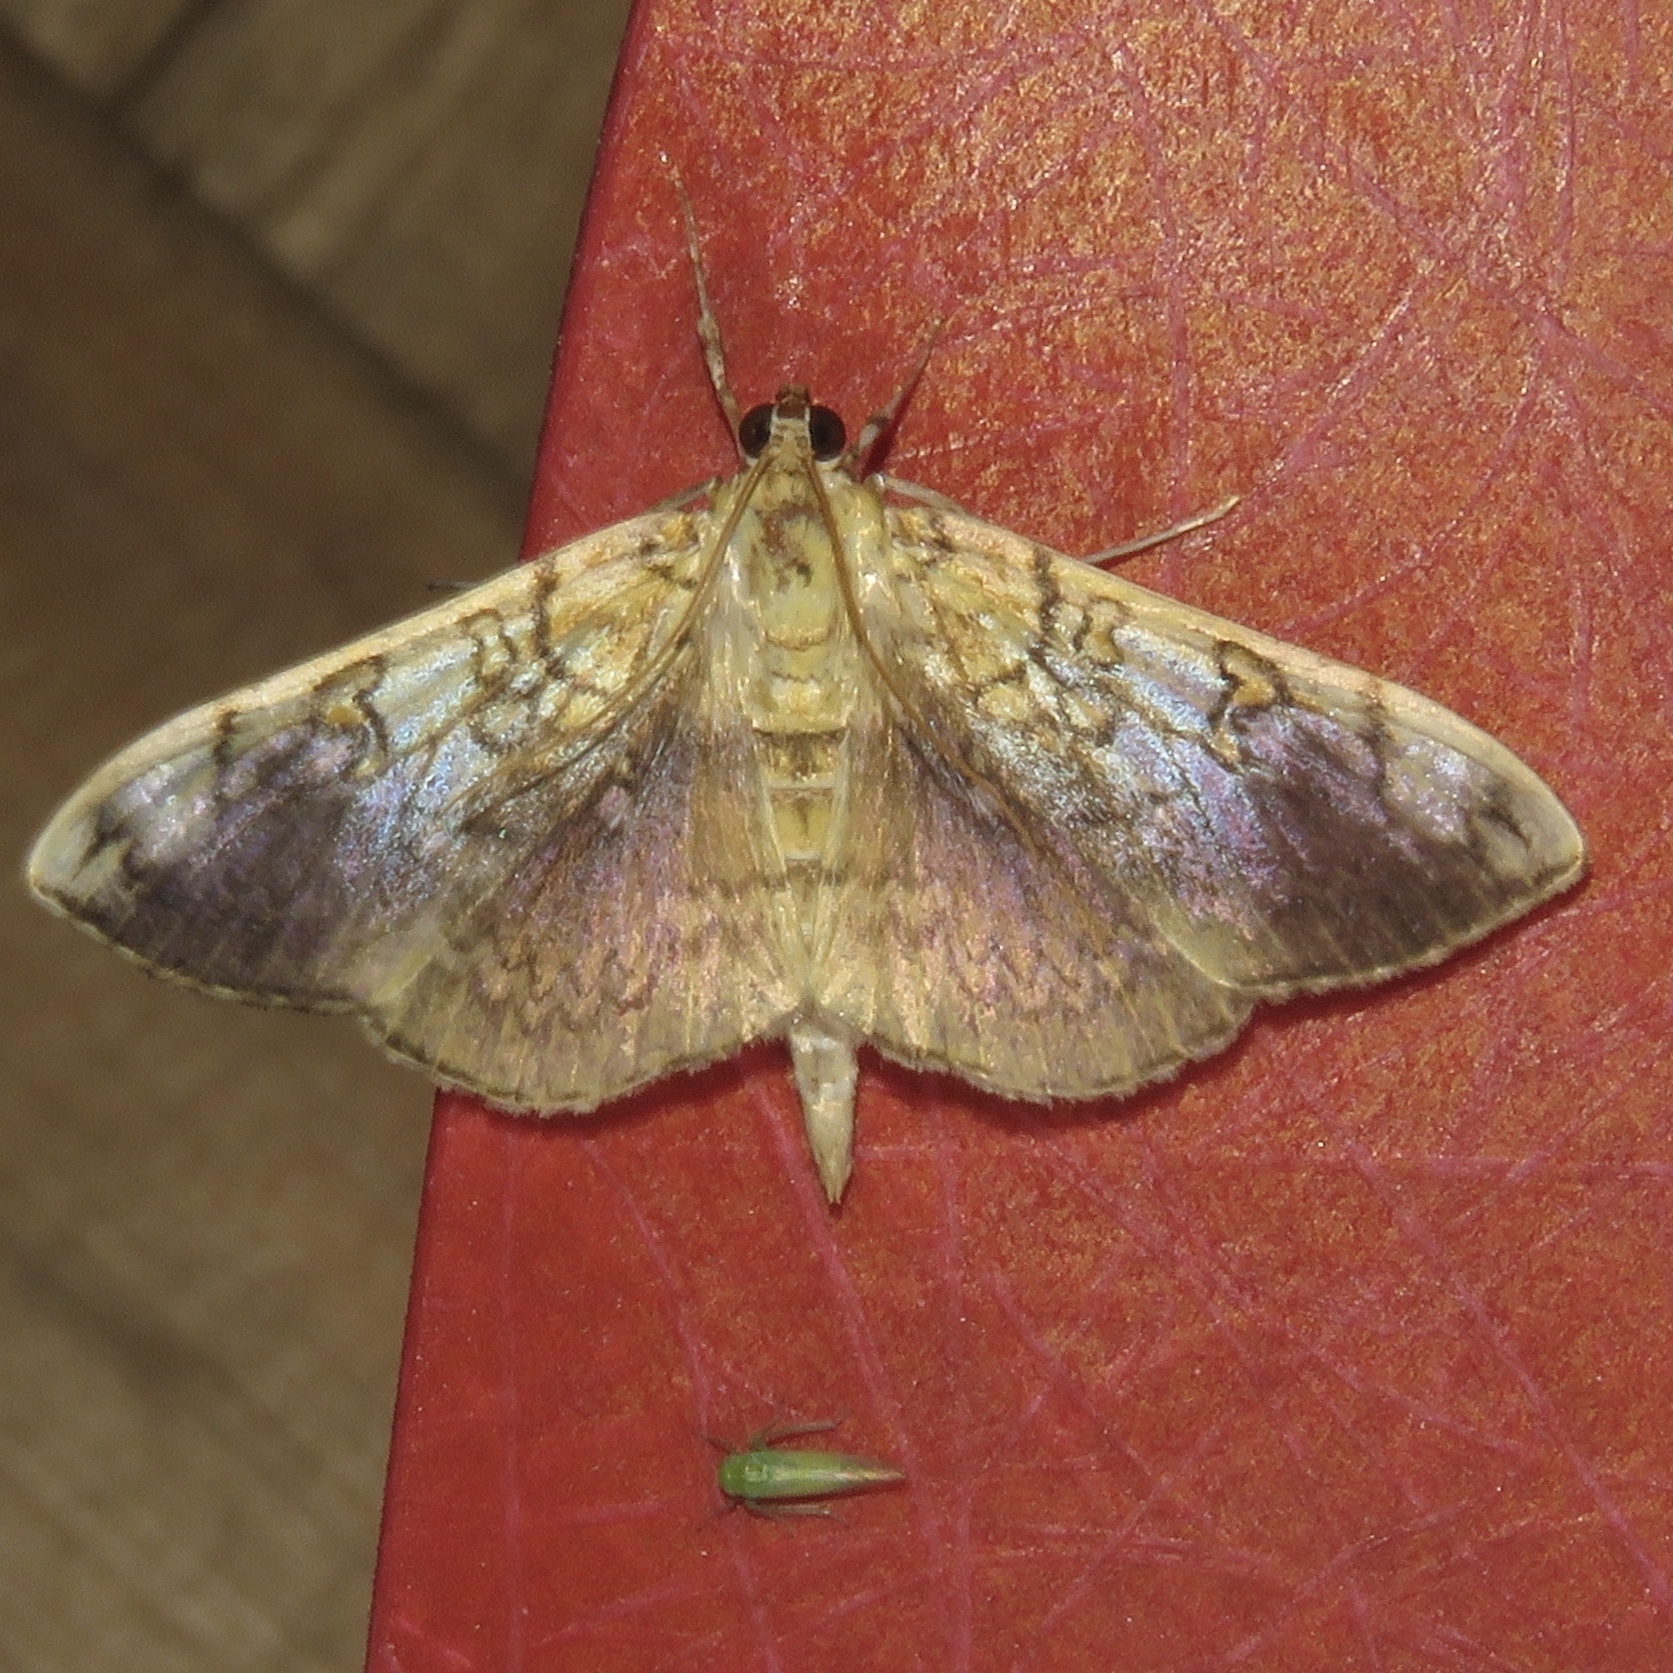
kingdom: Animalia
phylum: Arthropoda
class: Insecta
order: Lepidoptera
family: Crambidae
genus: Pantographa
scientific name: Pantographa limata
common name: Basswood leafroller moth
